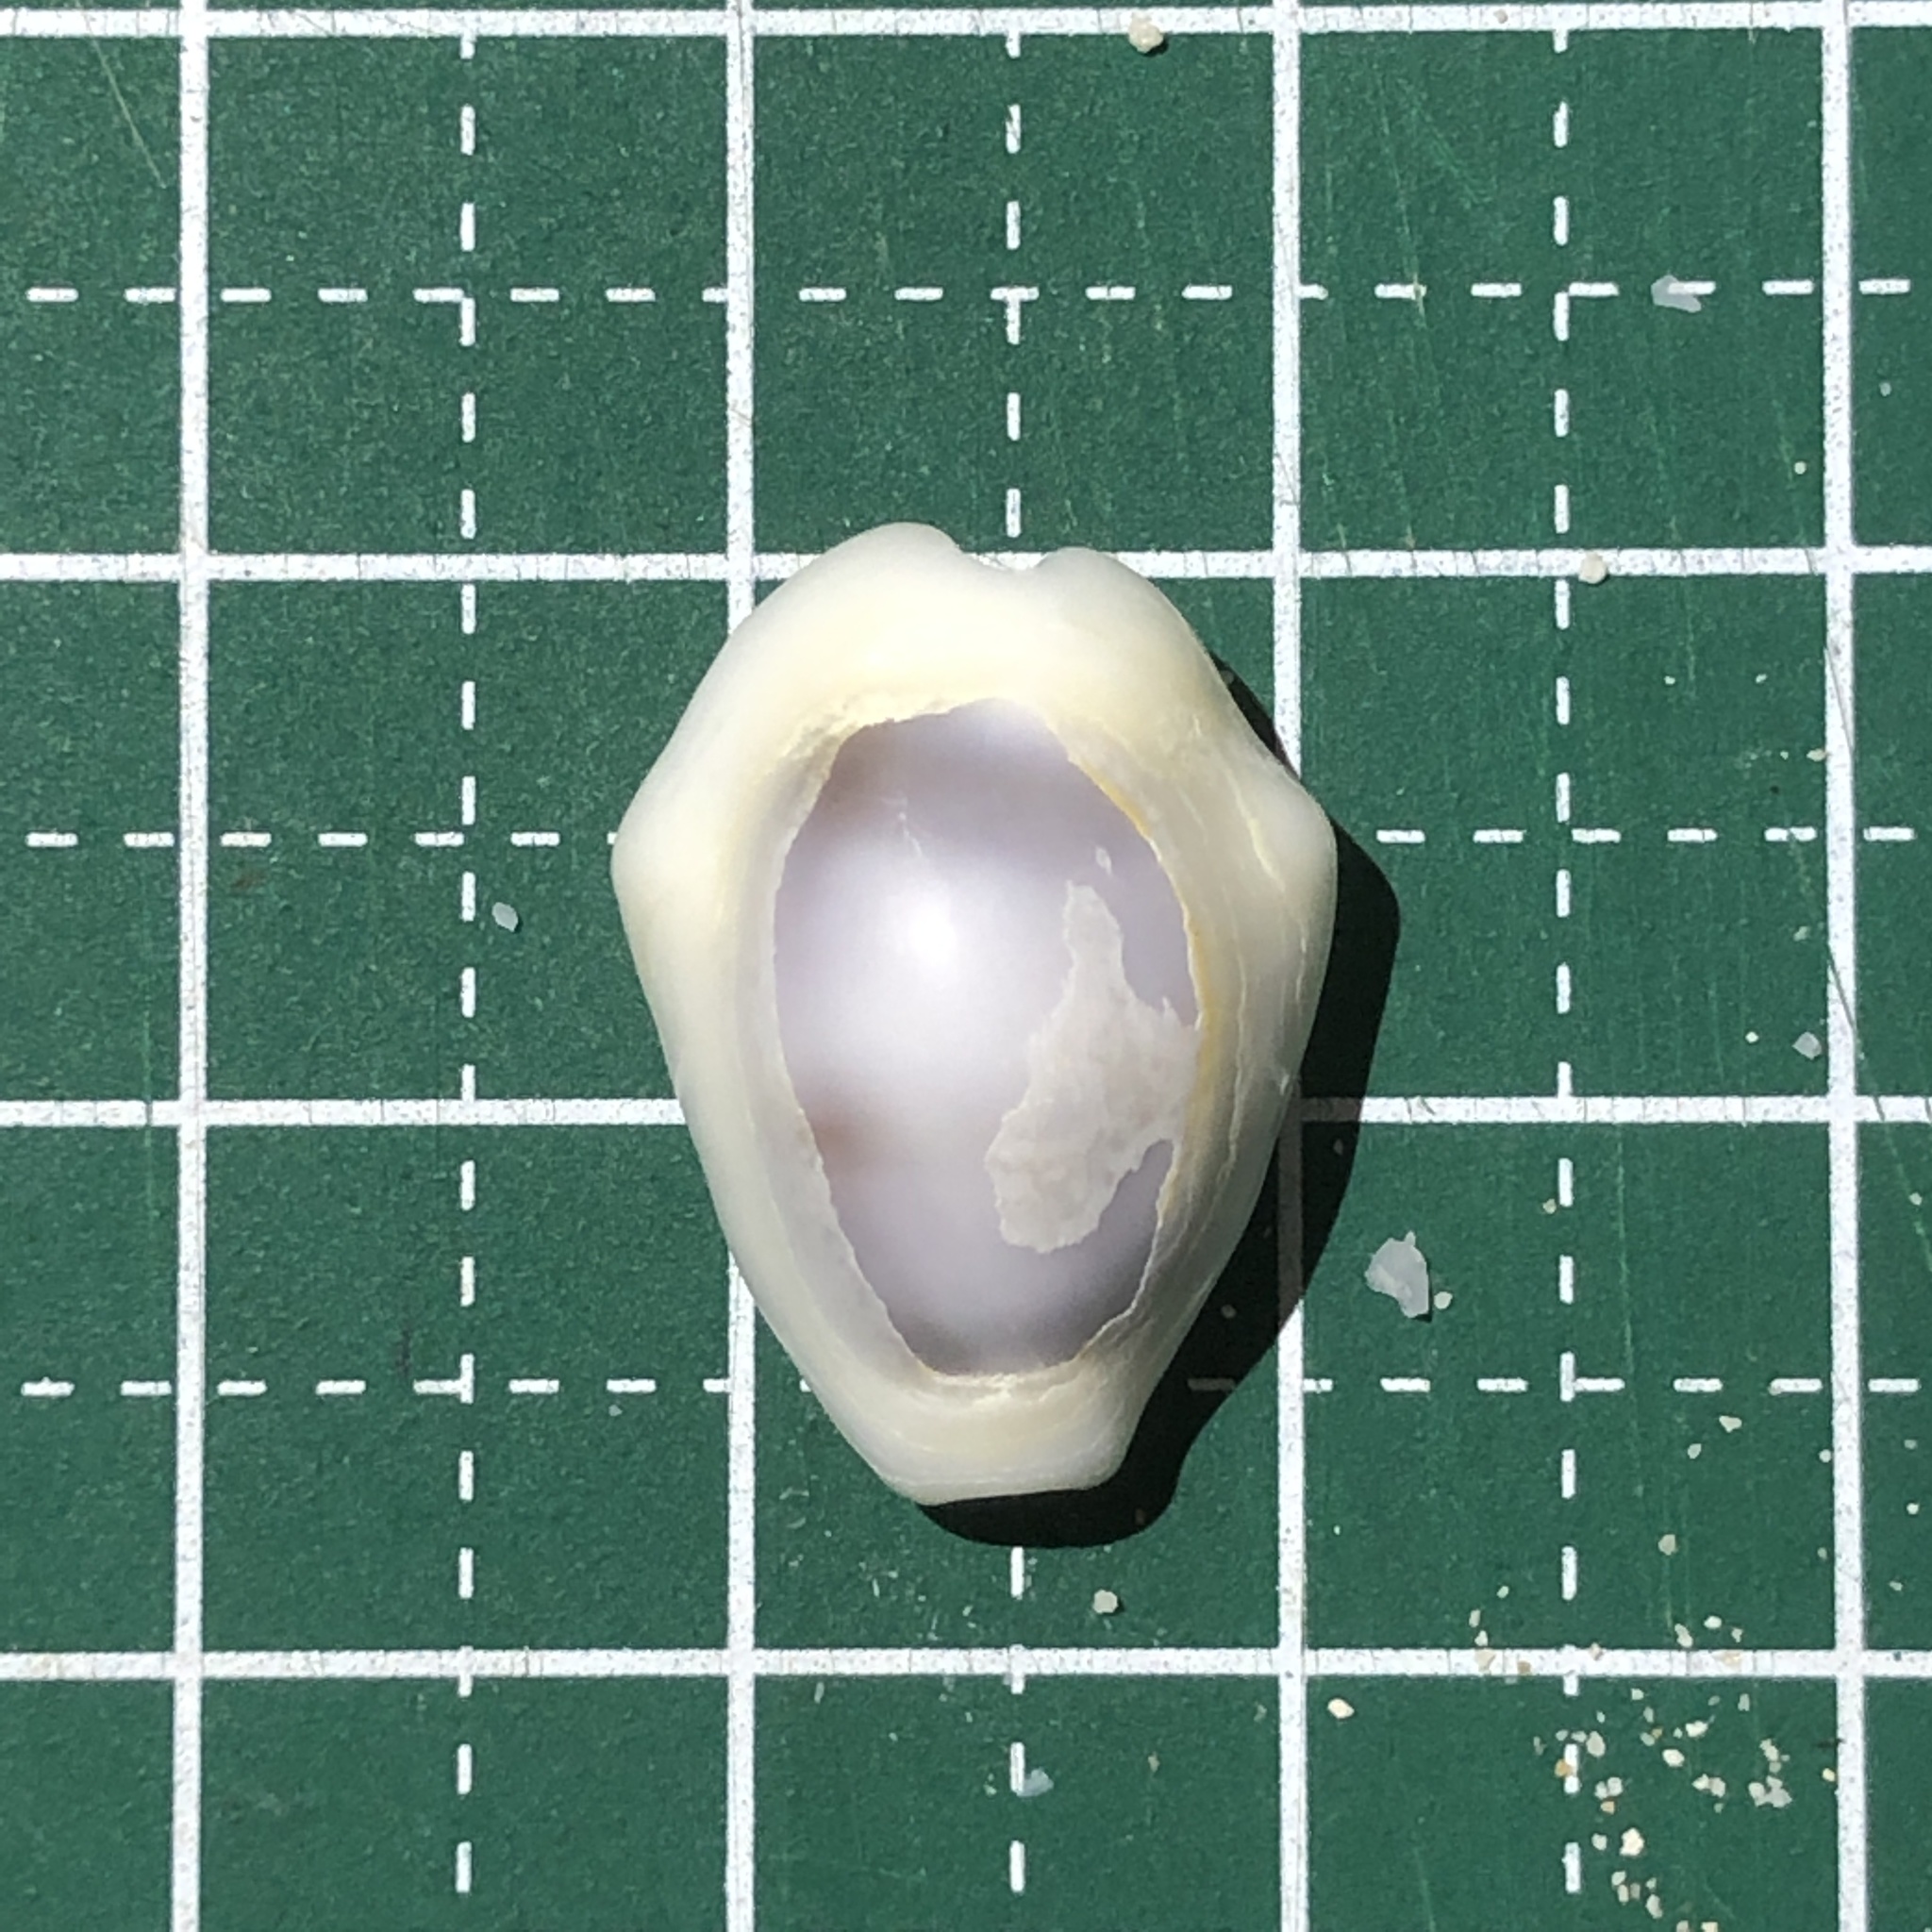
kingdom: Animalia
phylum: Mollusca
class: Gastropoda
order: Littorinimorpha
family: Cypraeidae
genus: Monetaria
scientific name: Monetaria moneta
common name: Money cowrie
